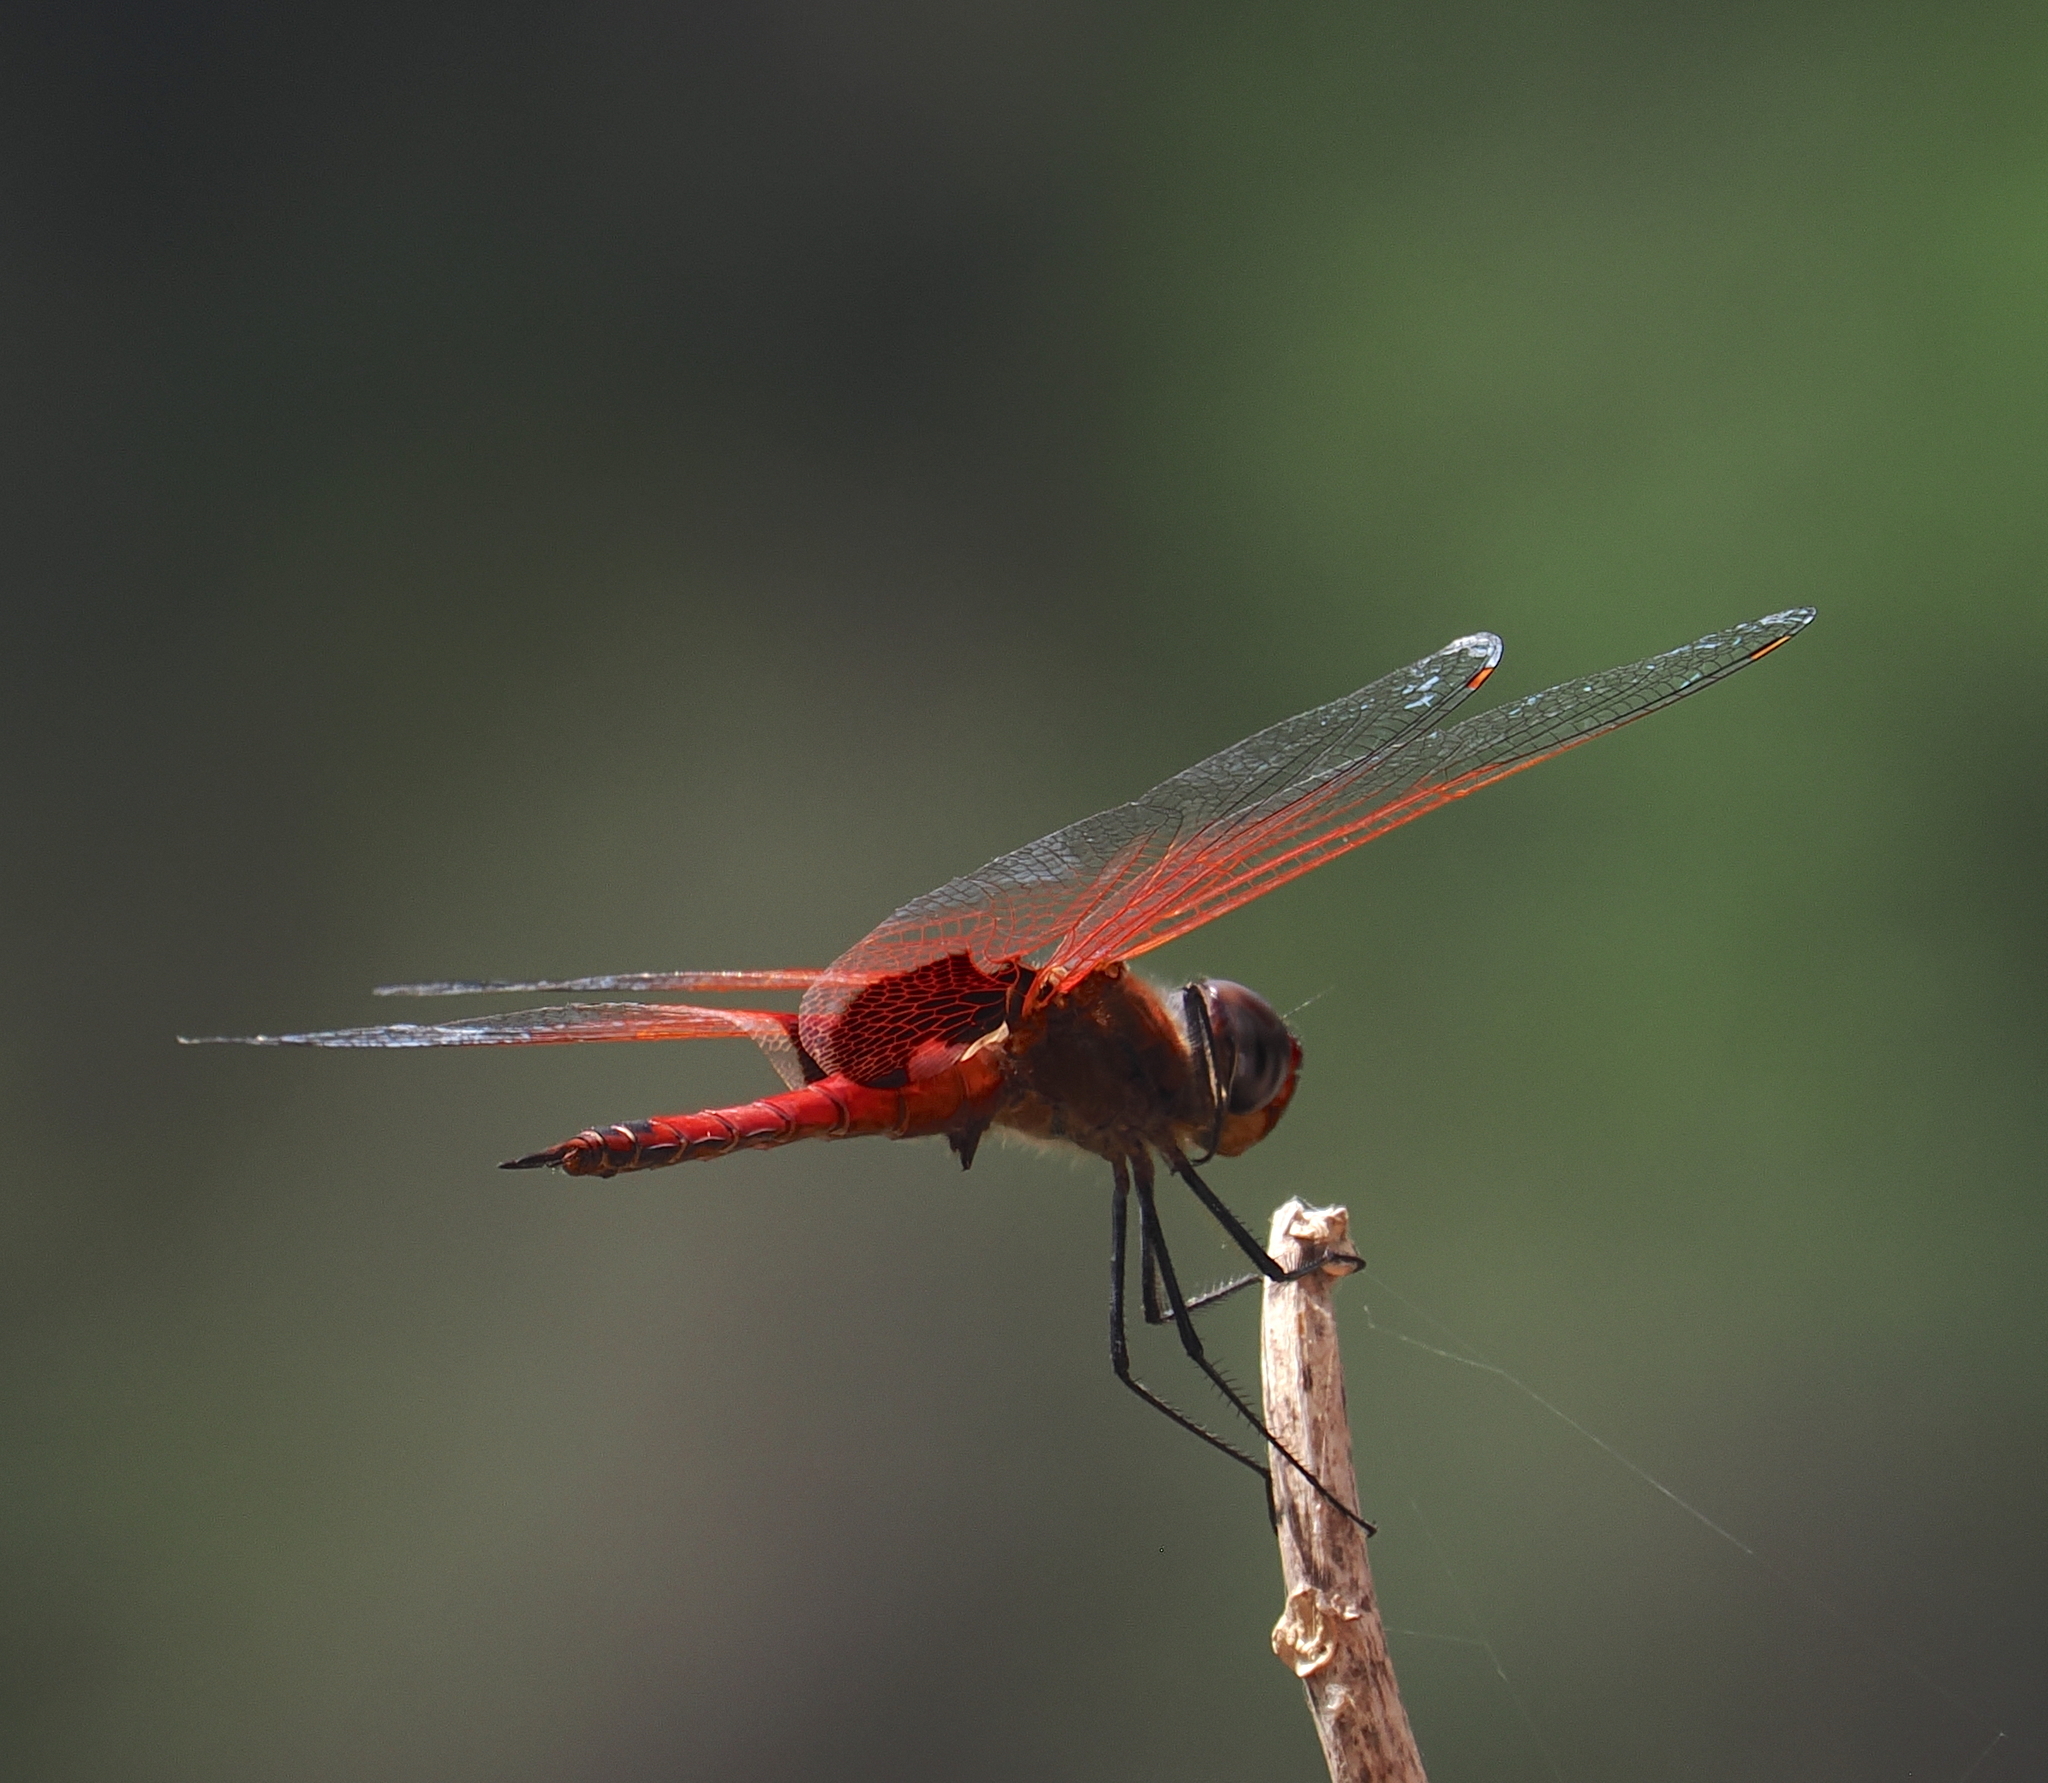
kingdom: Animalia
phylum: Arthropoda
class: Insecta
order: Odonata
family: Libellulidae
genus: Tramea
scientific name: Tramea stenoloba
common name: Narrow-lobed glider
